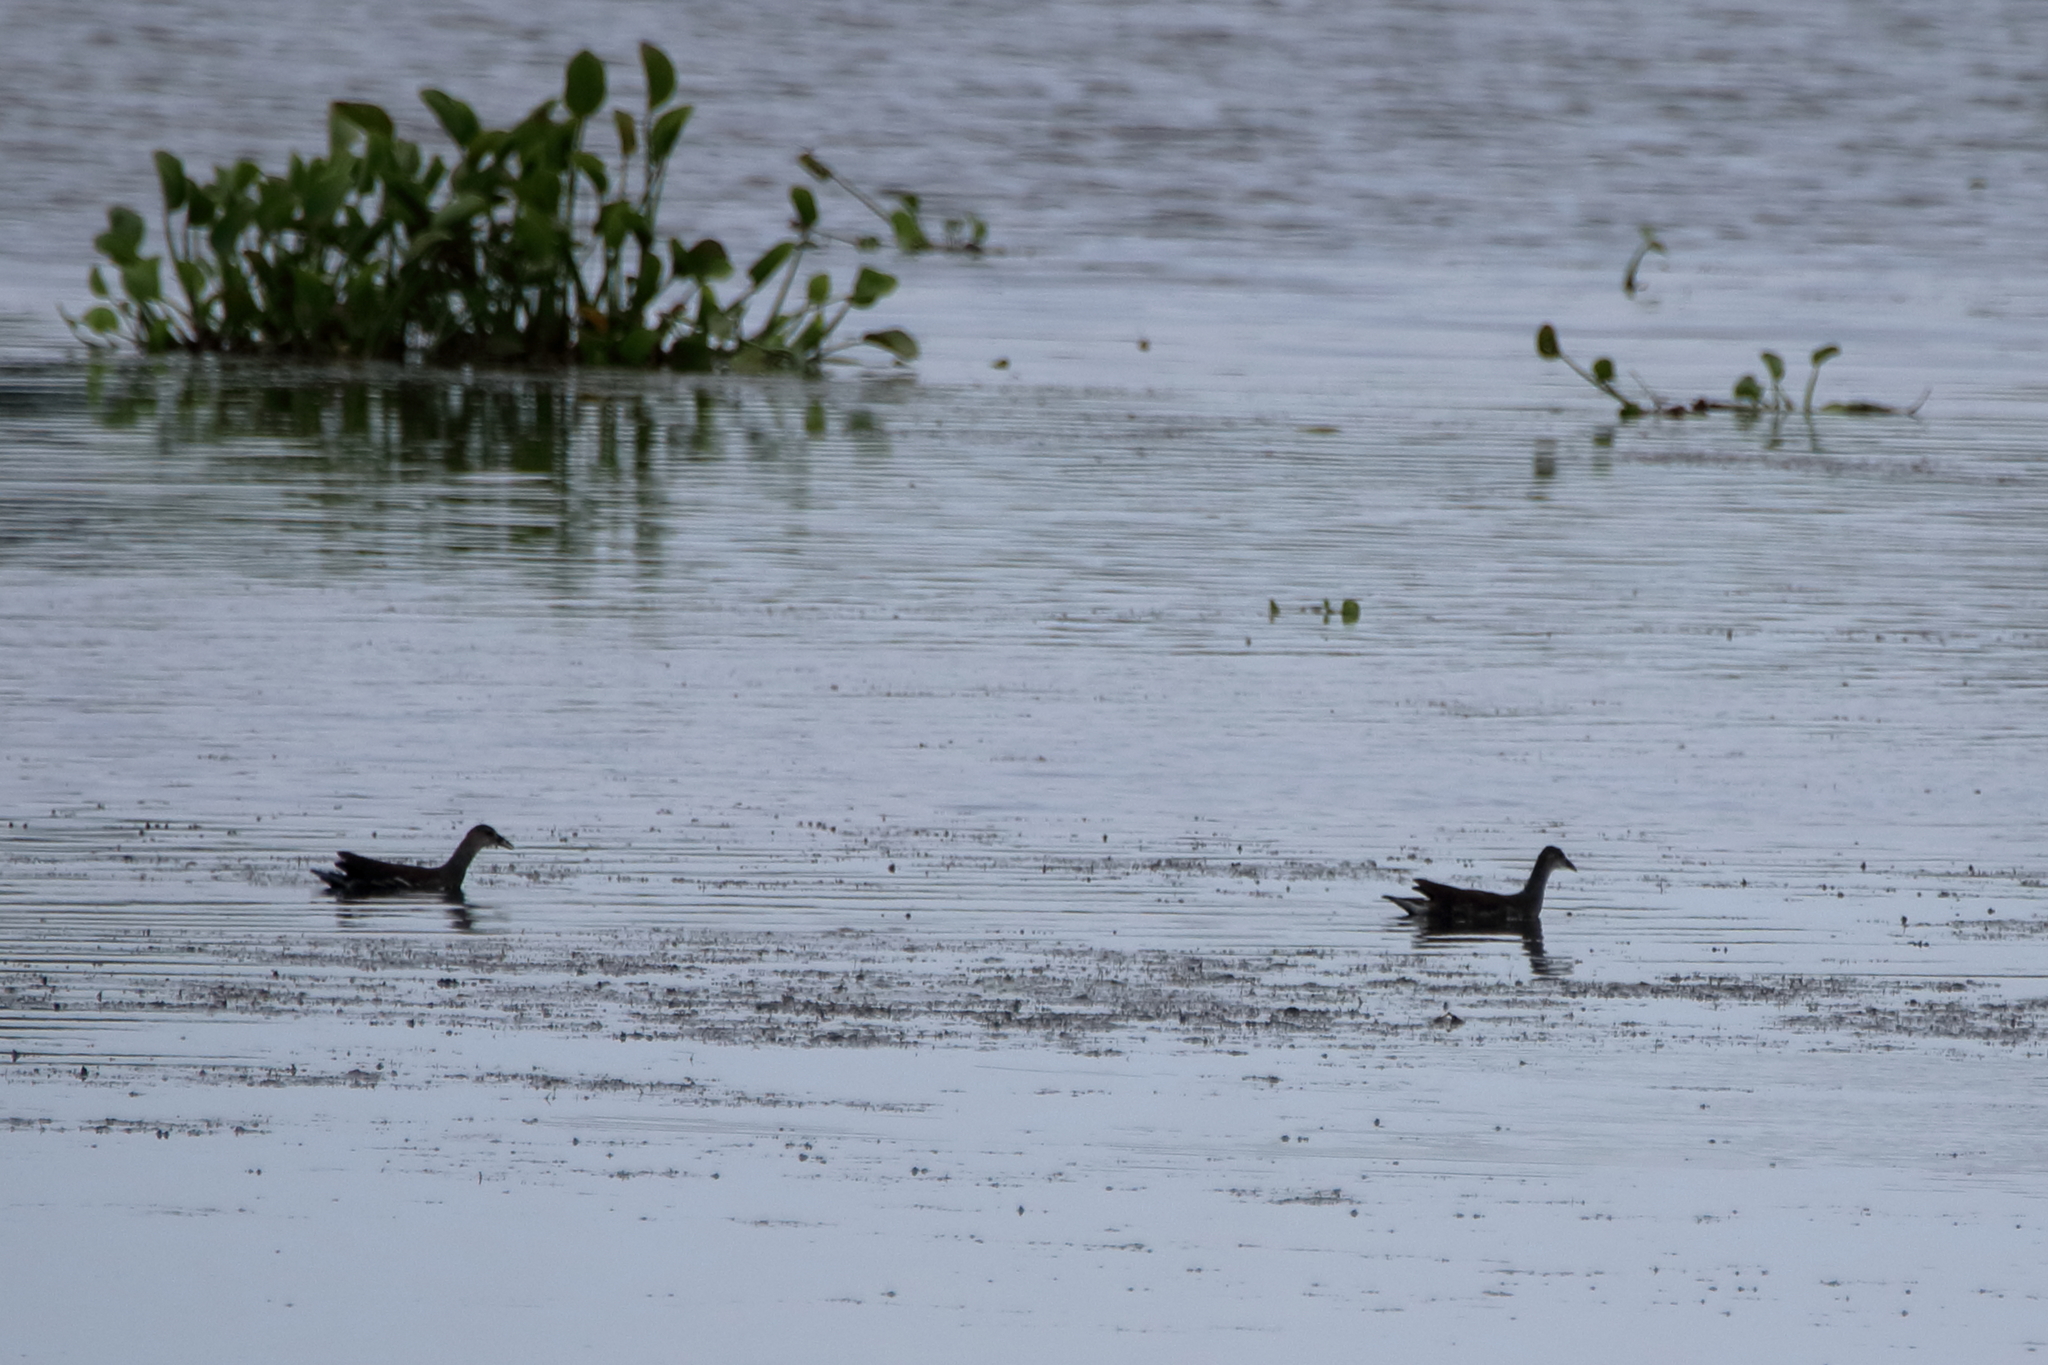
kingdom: Animalia
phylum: Chordata
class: Aves
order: Gruiformes
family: Rallidae
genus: Gallinula
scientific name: Gallinula chloropus
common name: Common moorhen
